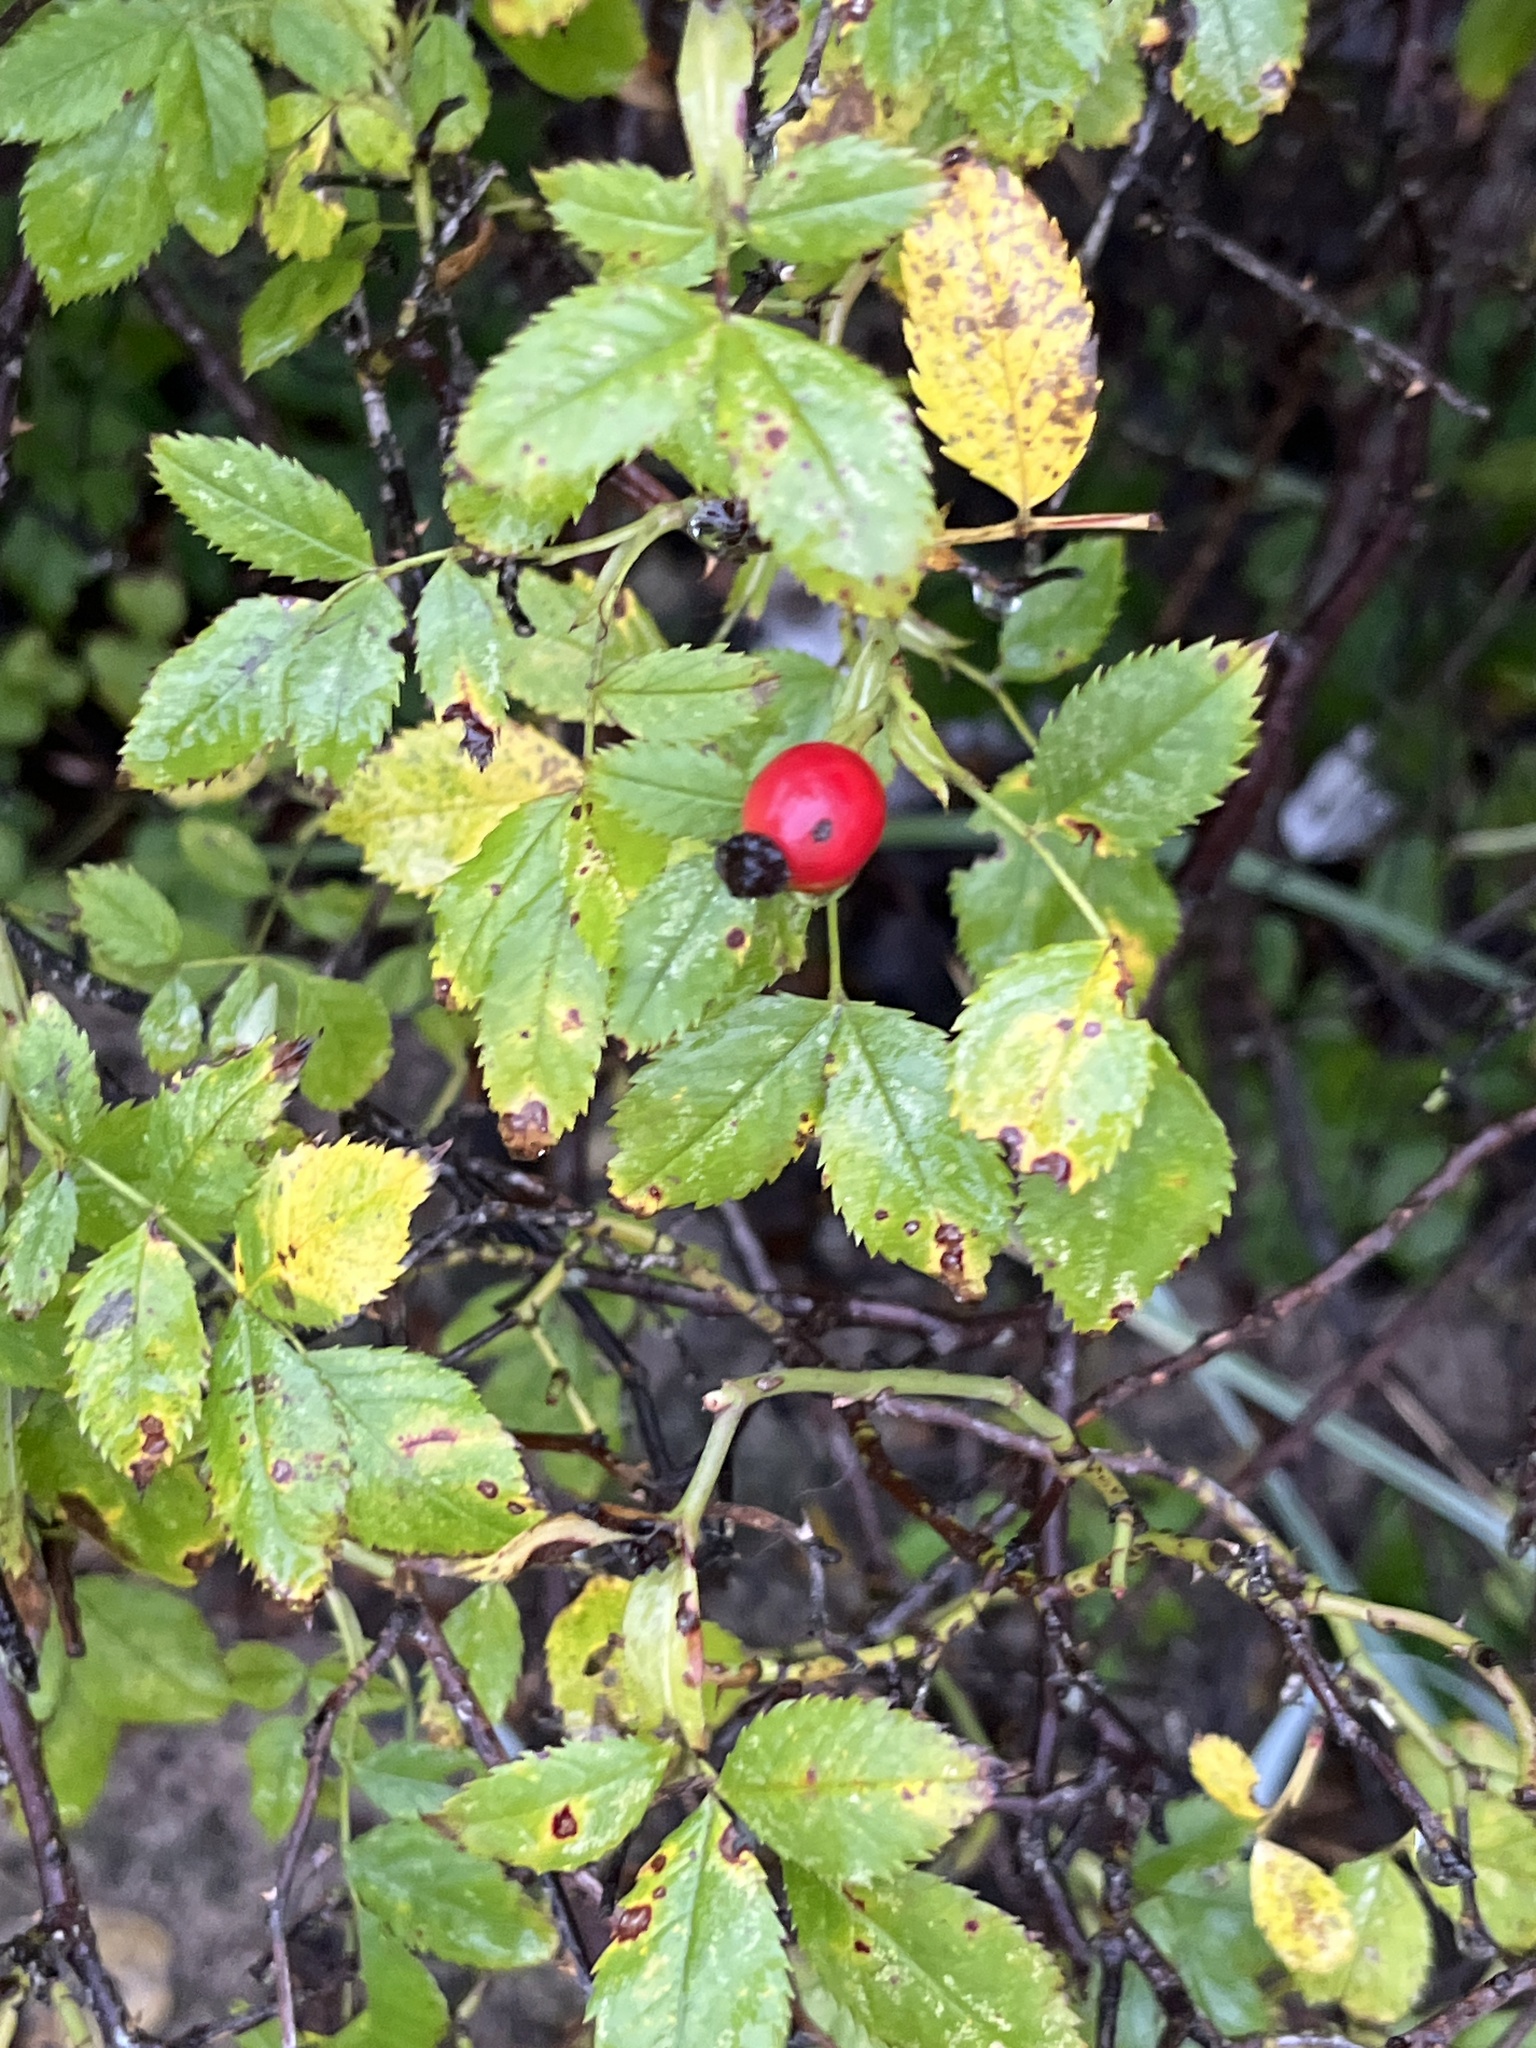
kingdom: Plantae
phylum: Tracheophyta
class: Magnoliopsida
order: Rosales
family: Rosaceae
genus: Rosa
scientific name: Rosa canina
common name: Dog rose
